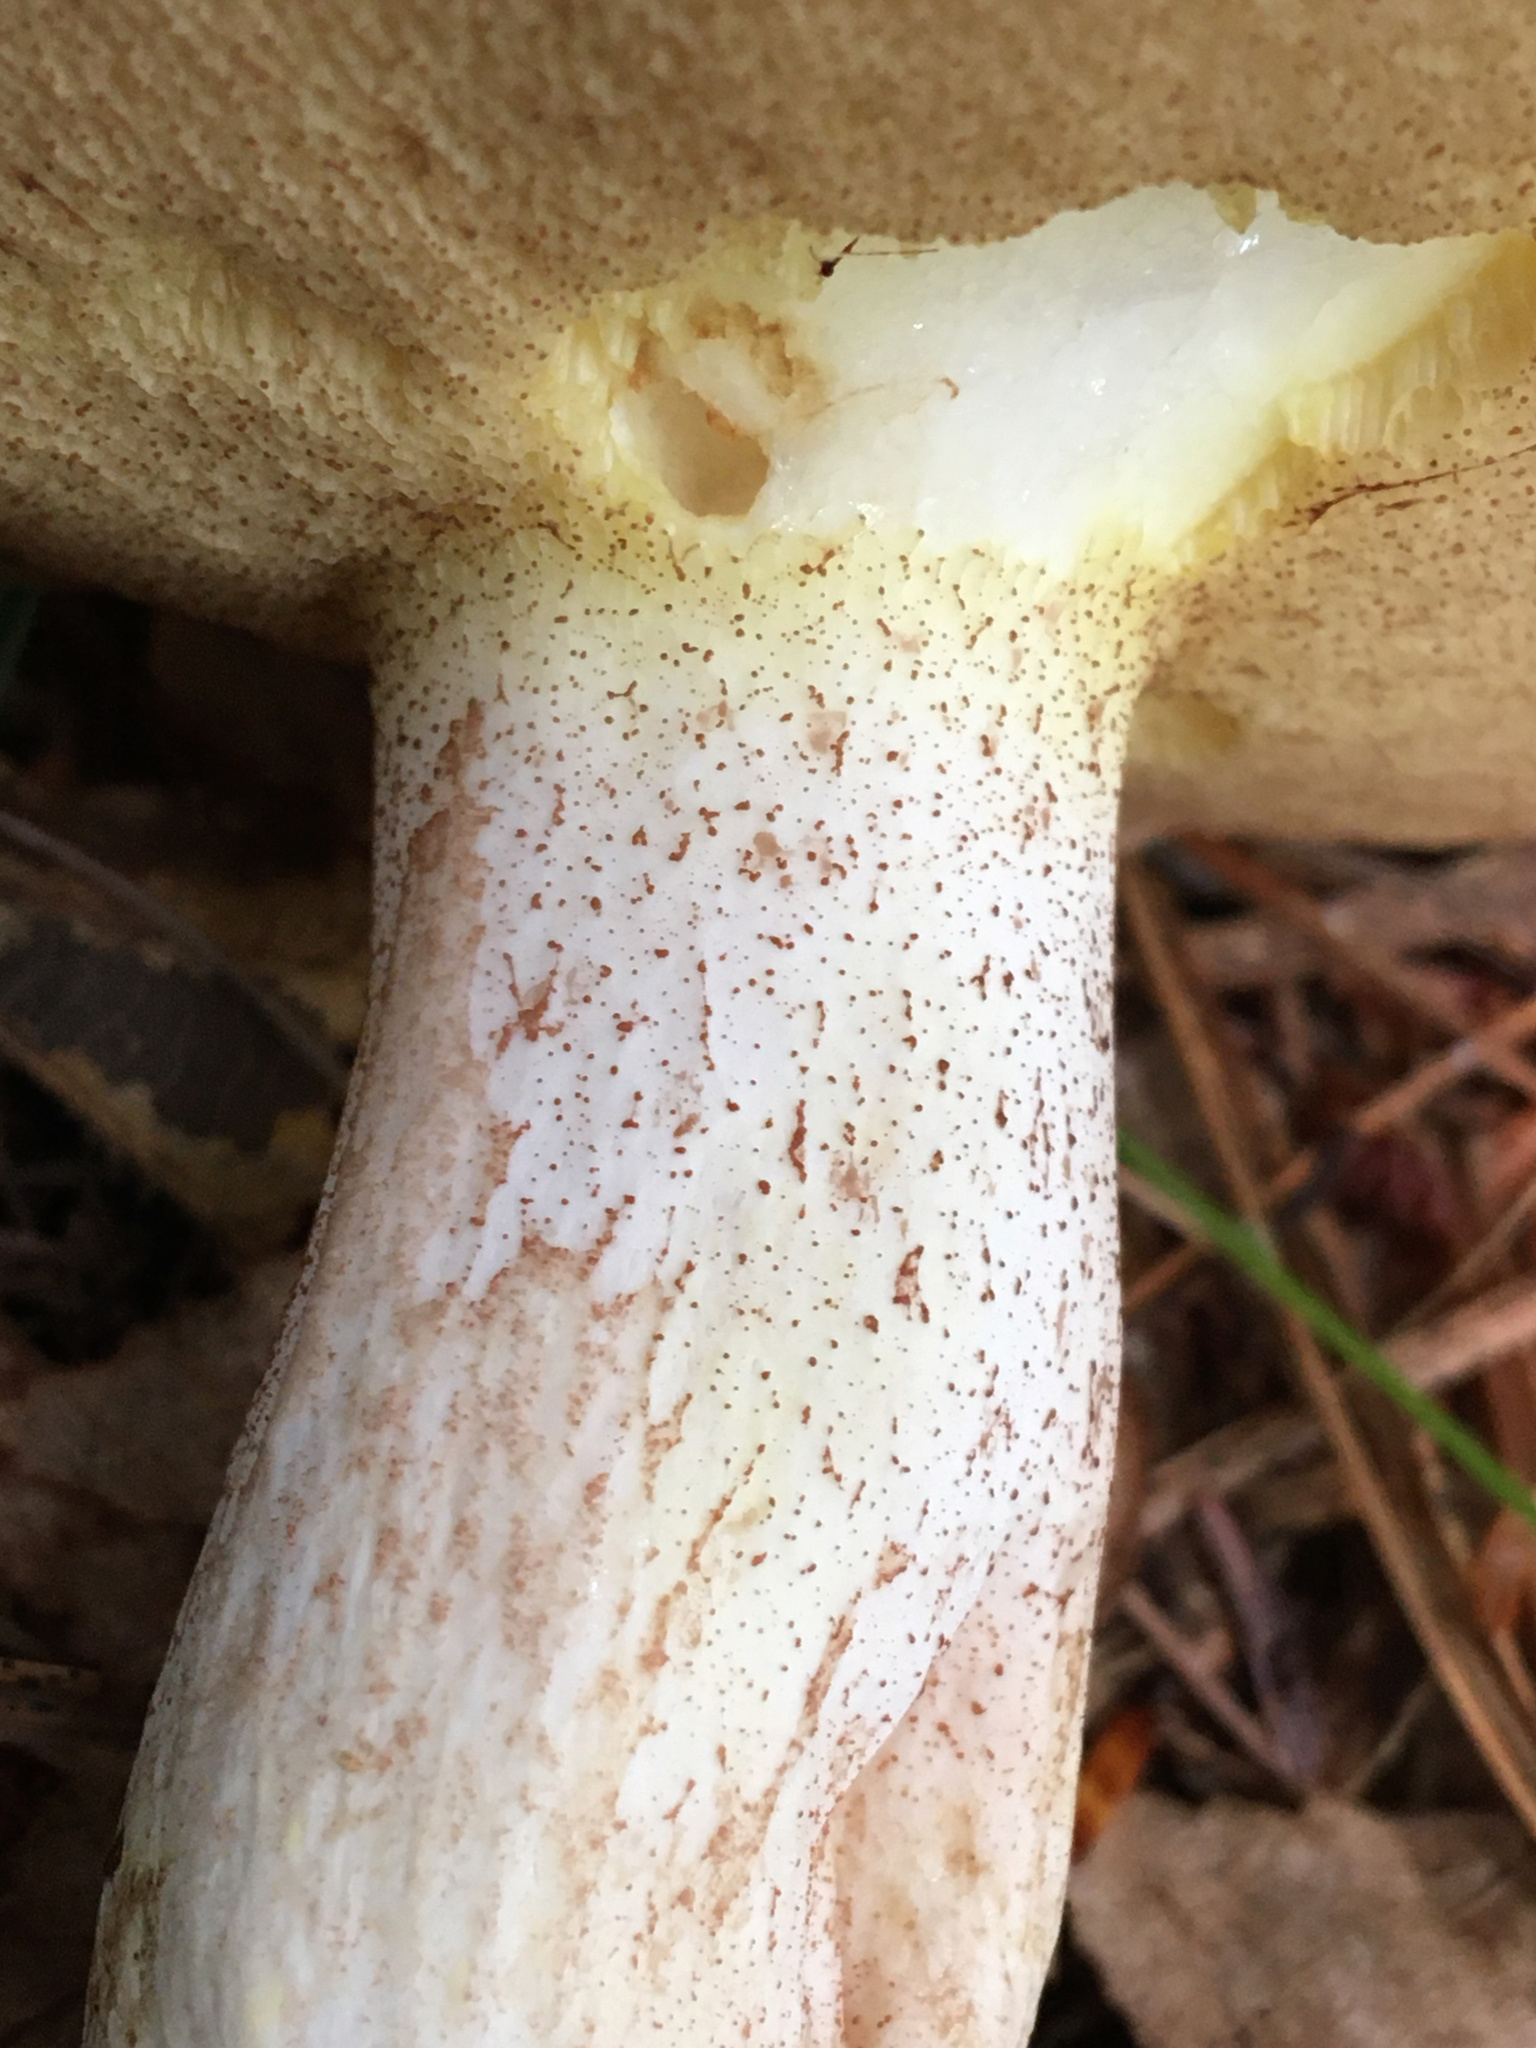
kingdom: Fungi
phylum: Basidiomycota
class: Agaricomycetes
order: Boletales
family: Suillaceae
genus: Fuscoboletinus
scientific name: Fuscoboletinus weaverae
